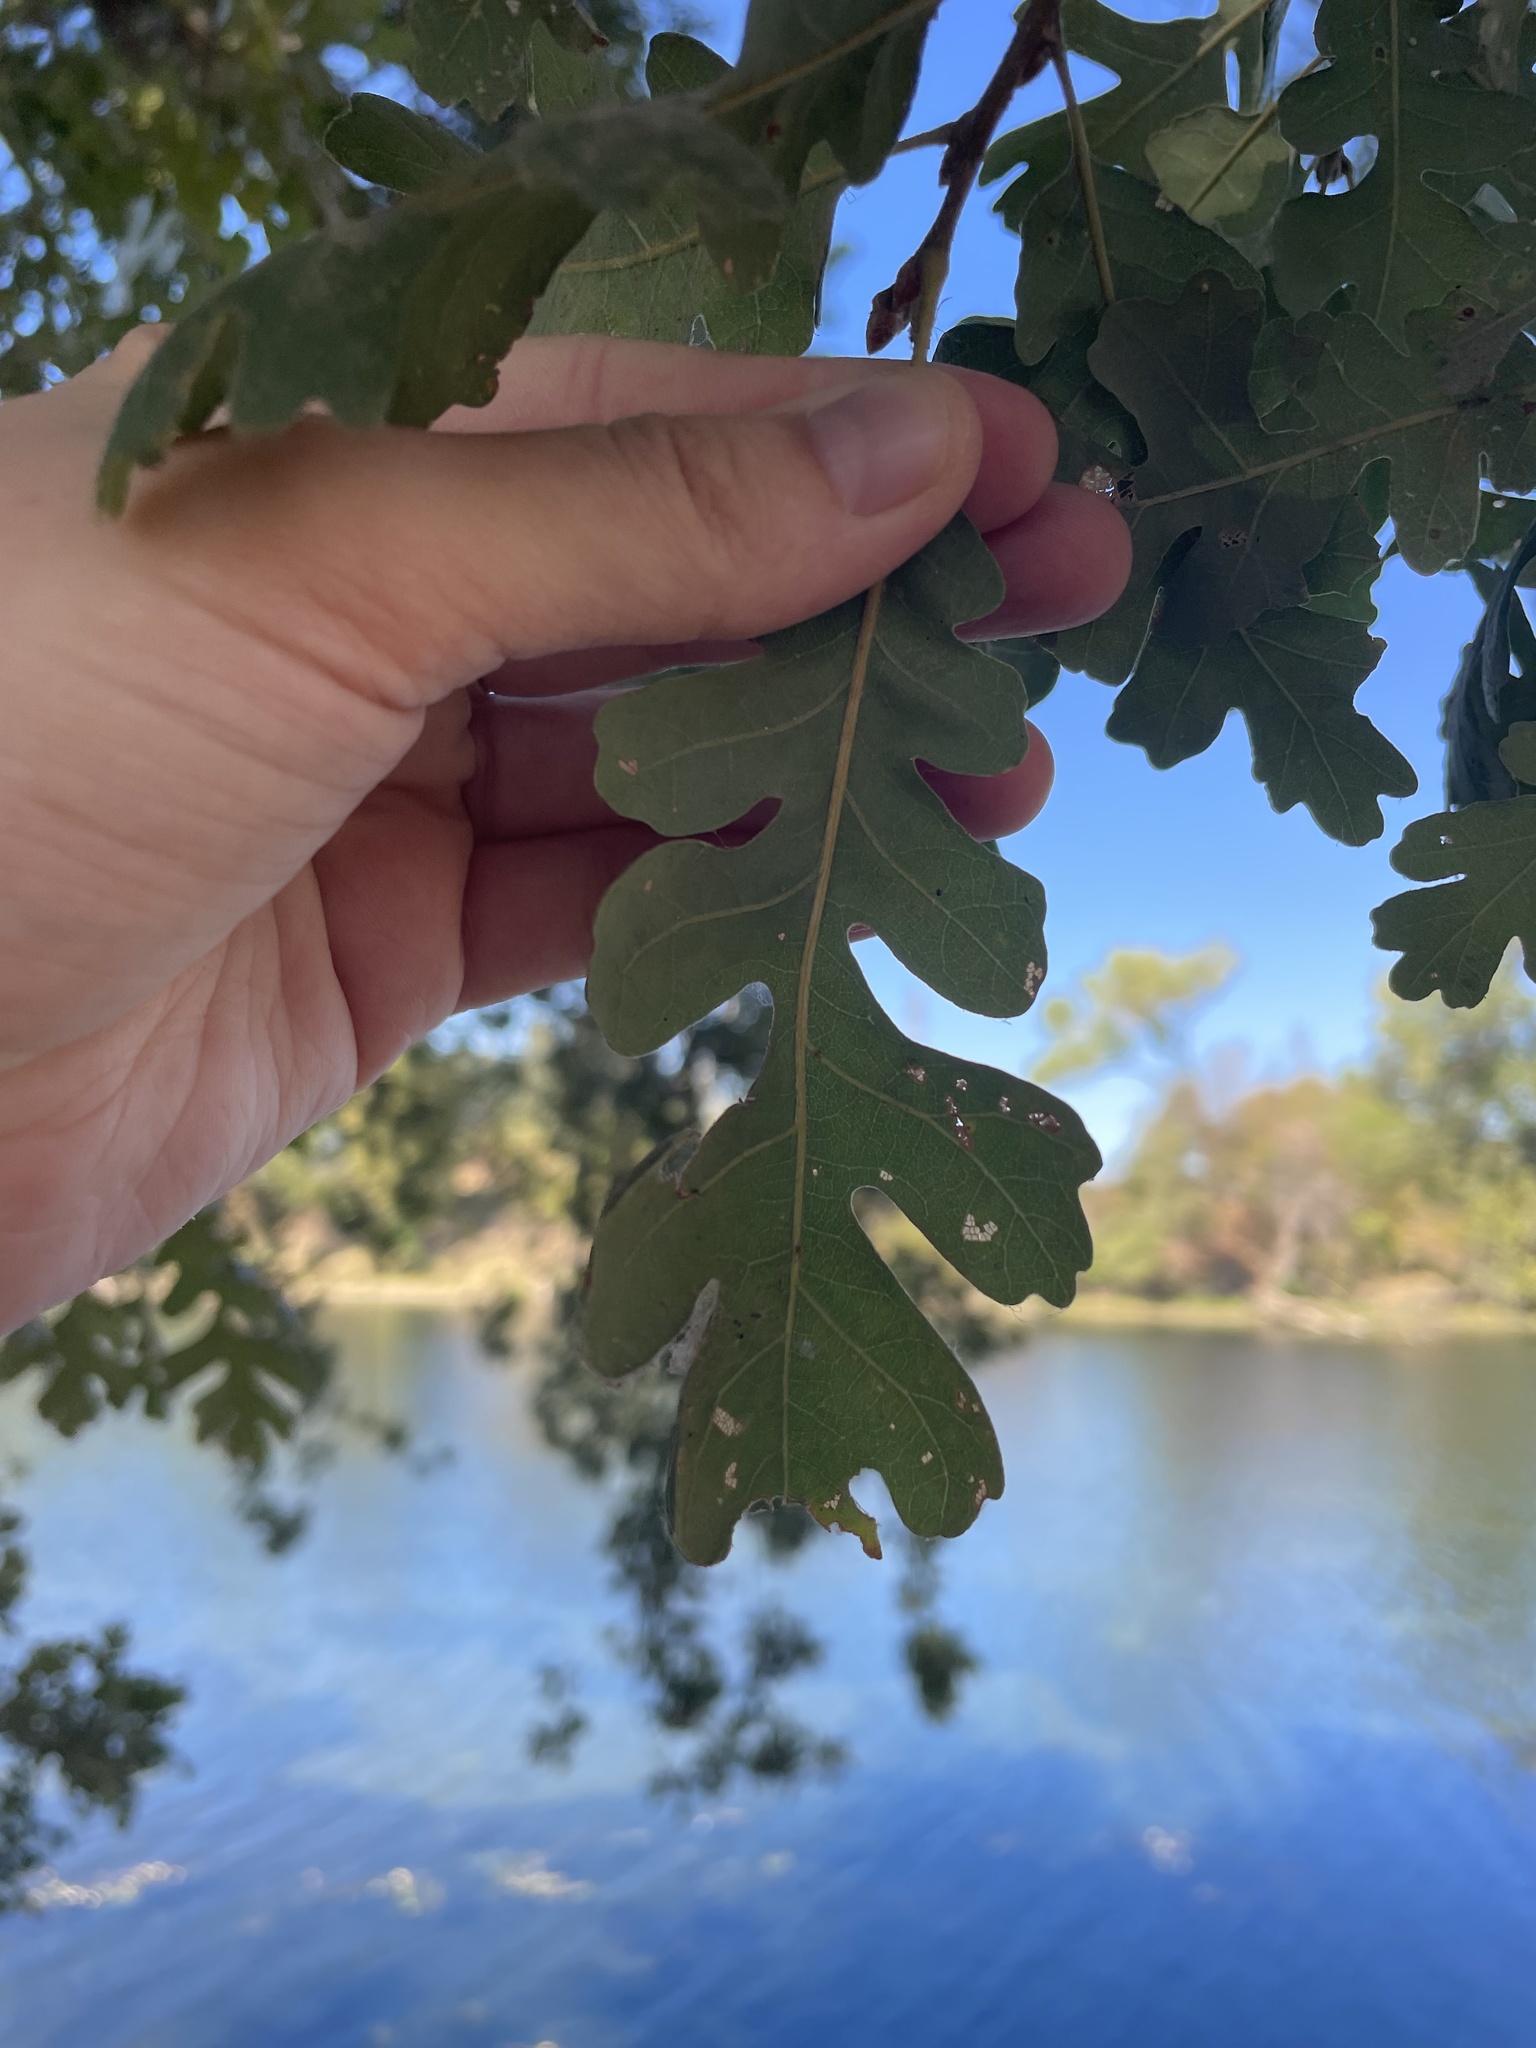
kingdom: Plantae
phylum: Tracheophyta
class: Magnoliopsida
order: Fagales
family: Fagaceae
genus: Quercus
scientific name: Quercus lobata
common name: Valley oak
